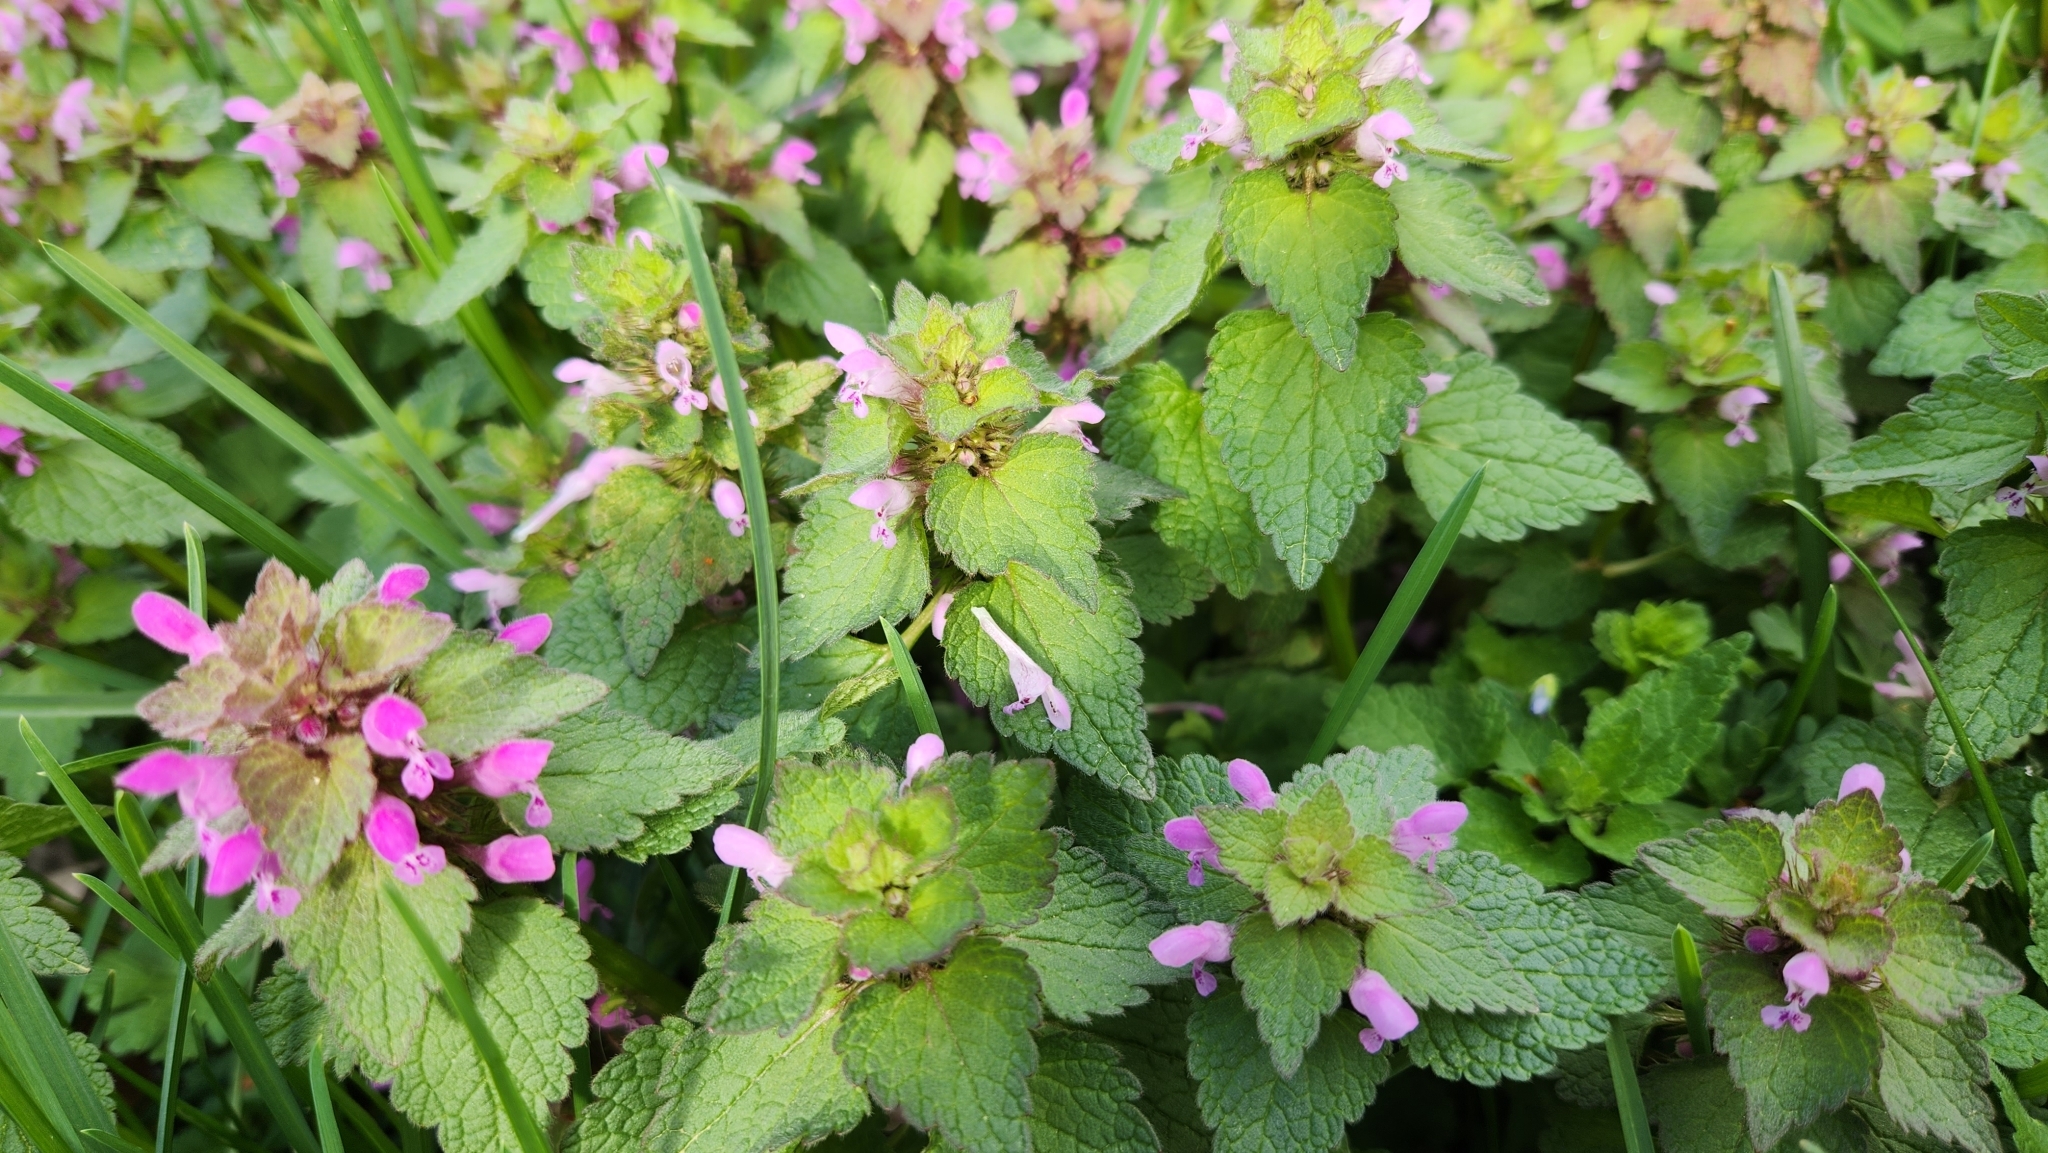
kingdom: Plantae
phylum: Tracheophyta
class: Magnoliopsida
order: Lamiales
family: Lamiaceae
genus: Lamium
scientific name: Lamium purpureum
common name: Red dead-nettle
